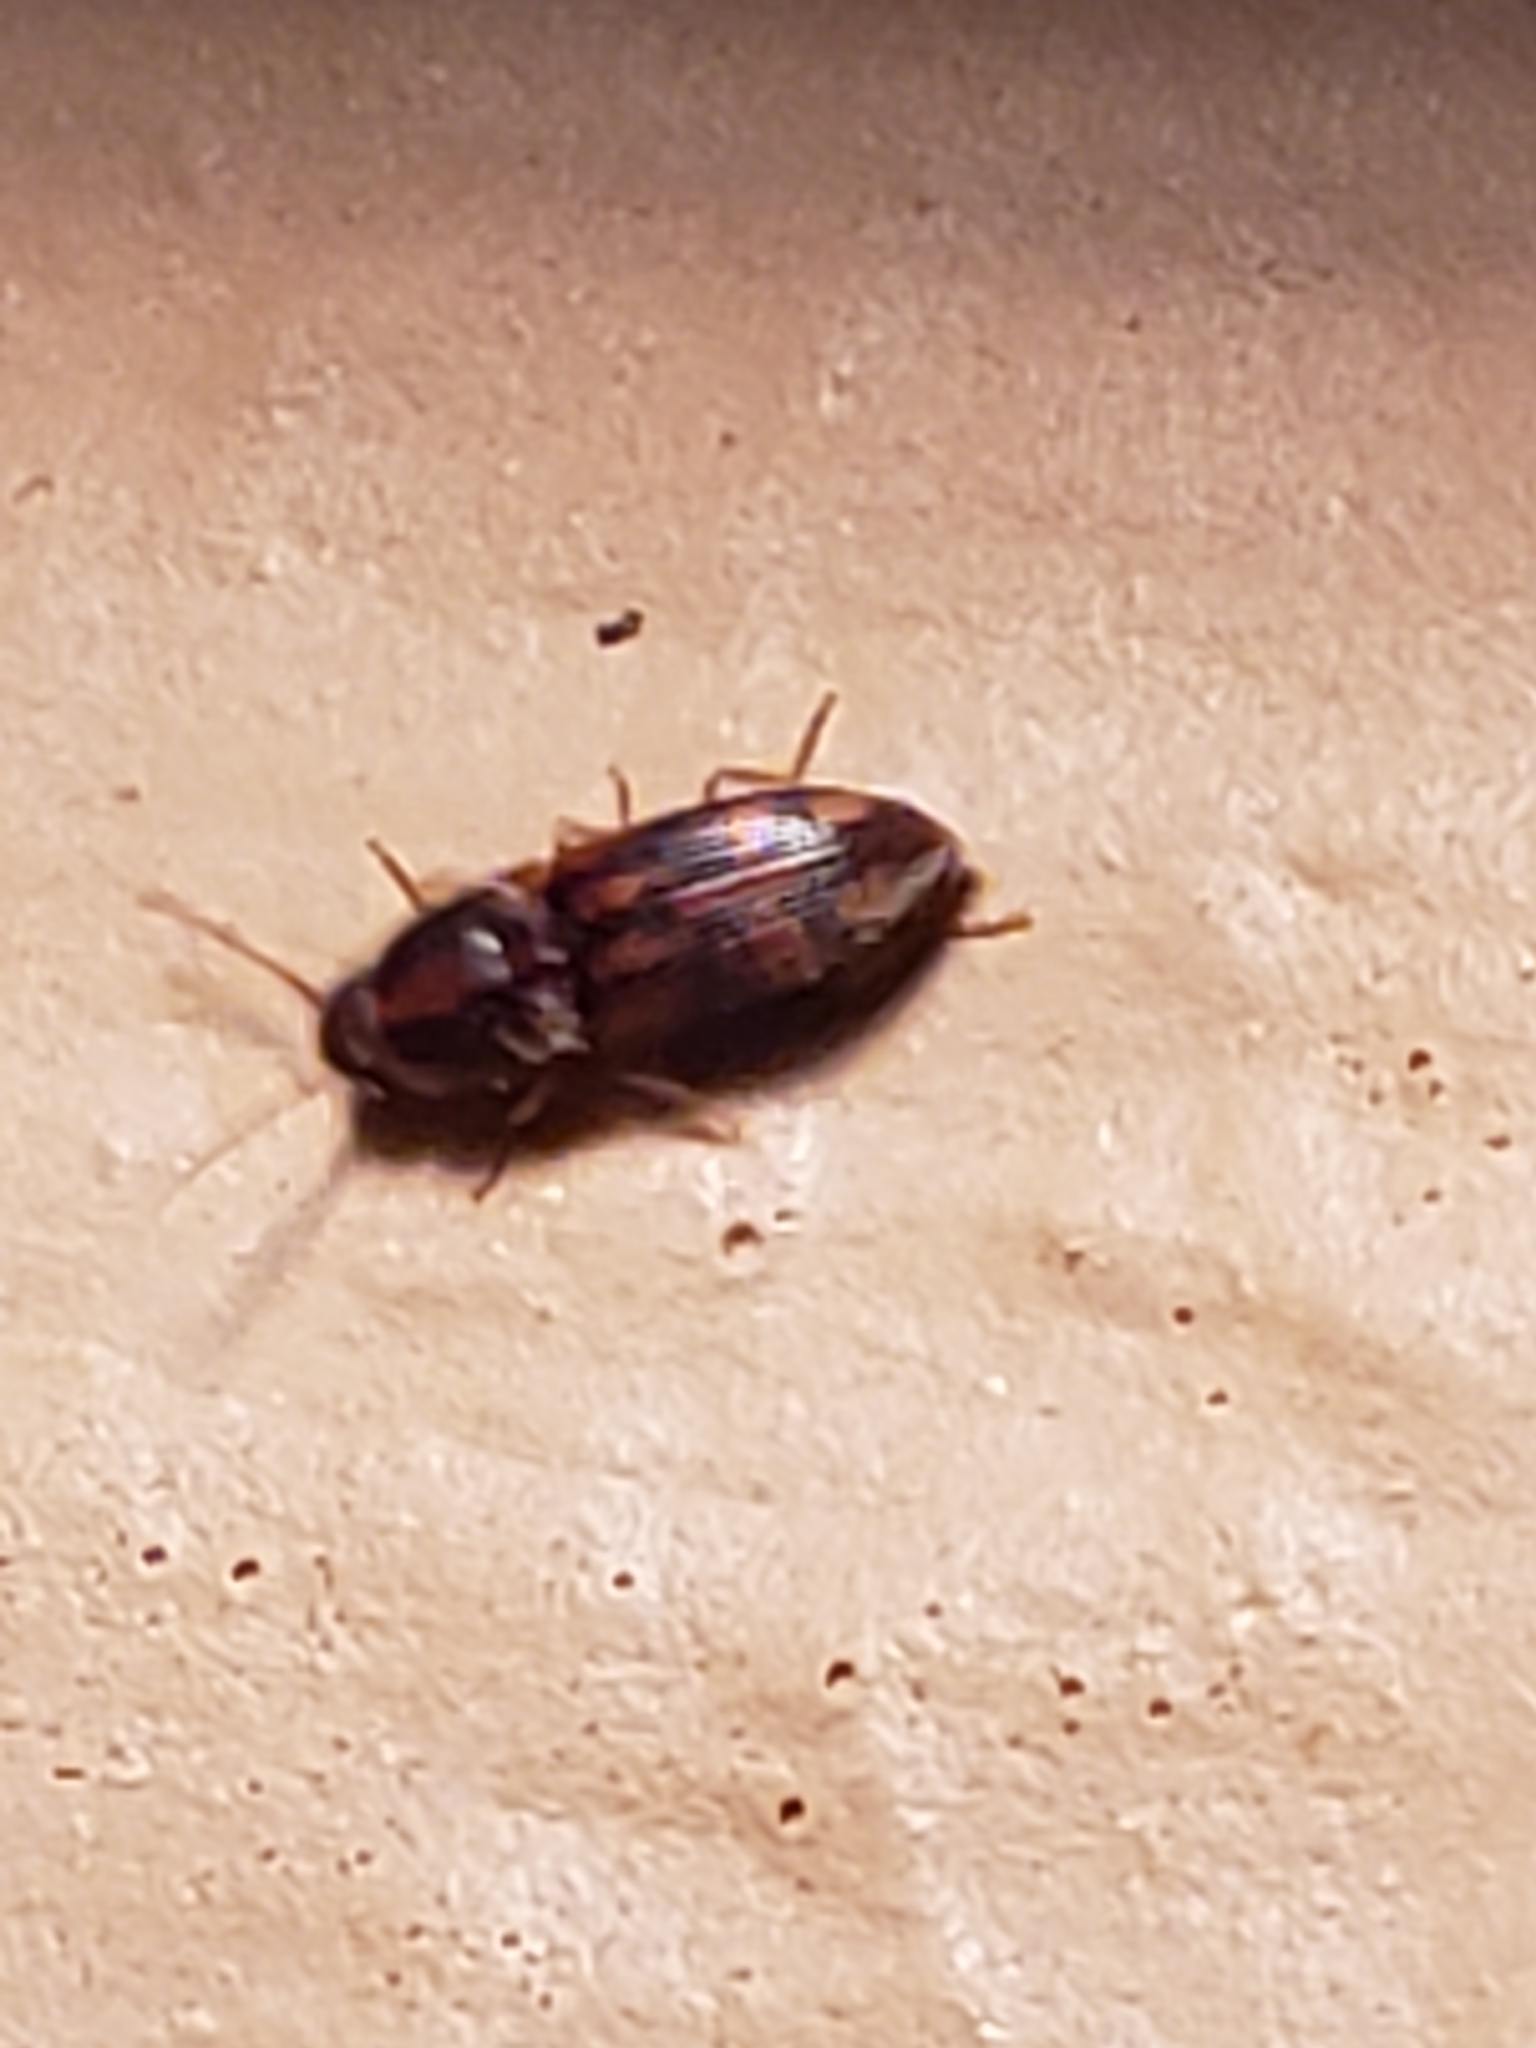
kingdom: Animalia
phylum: Arthropoda
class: Insecta
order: Coleoptera
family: Elateridae
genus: Monocrepidius
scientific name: Monocrepidius bellus
